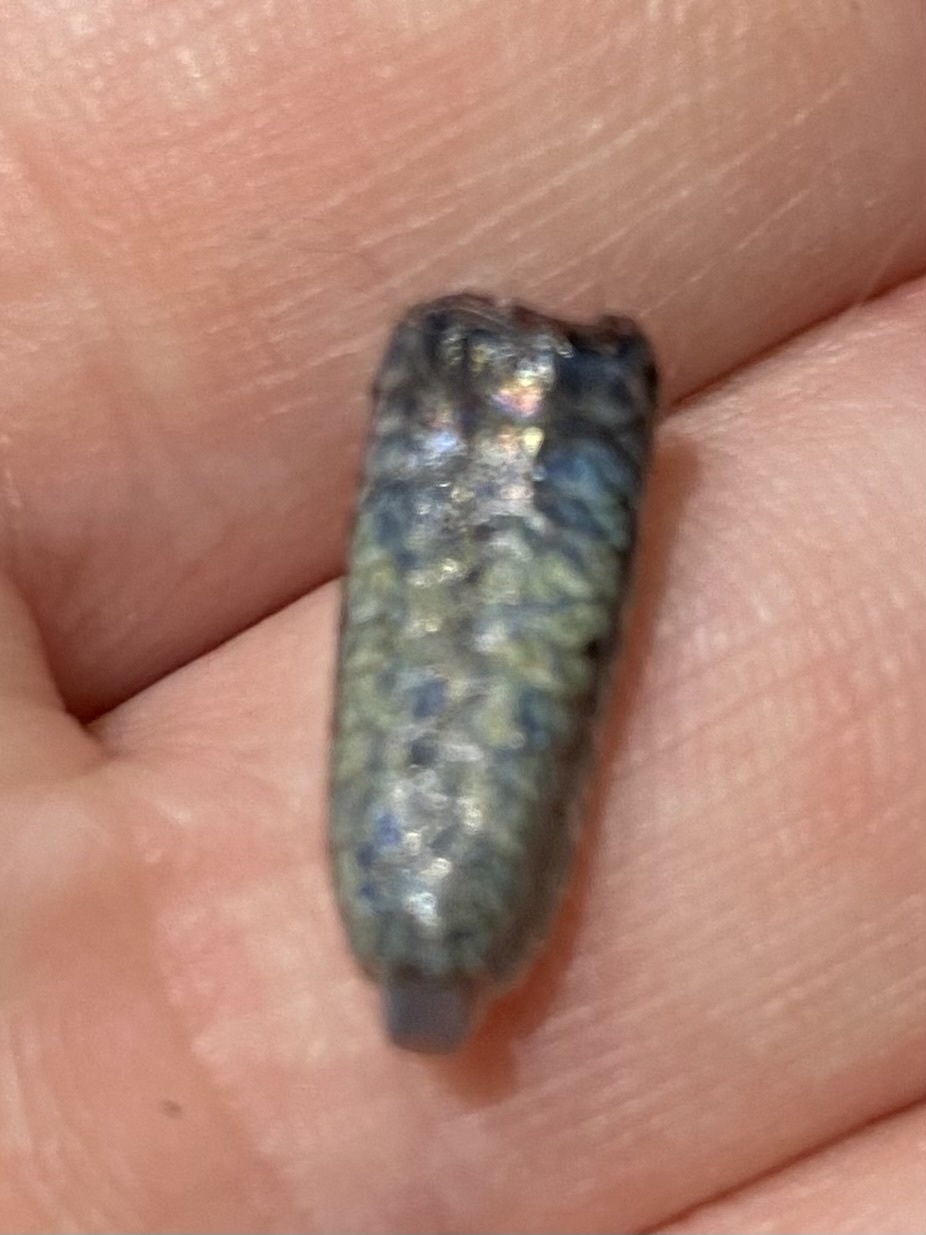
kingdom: Animalia
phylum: Chordata
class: Squamata
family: Scincidae
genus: Plestiodon
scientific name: Plestiodon skiltonianus
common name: Coronado island skink [interparietalis]
